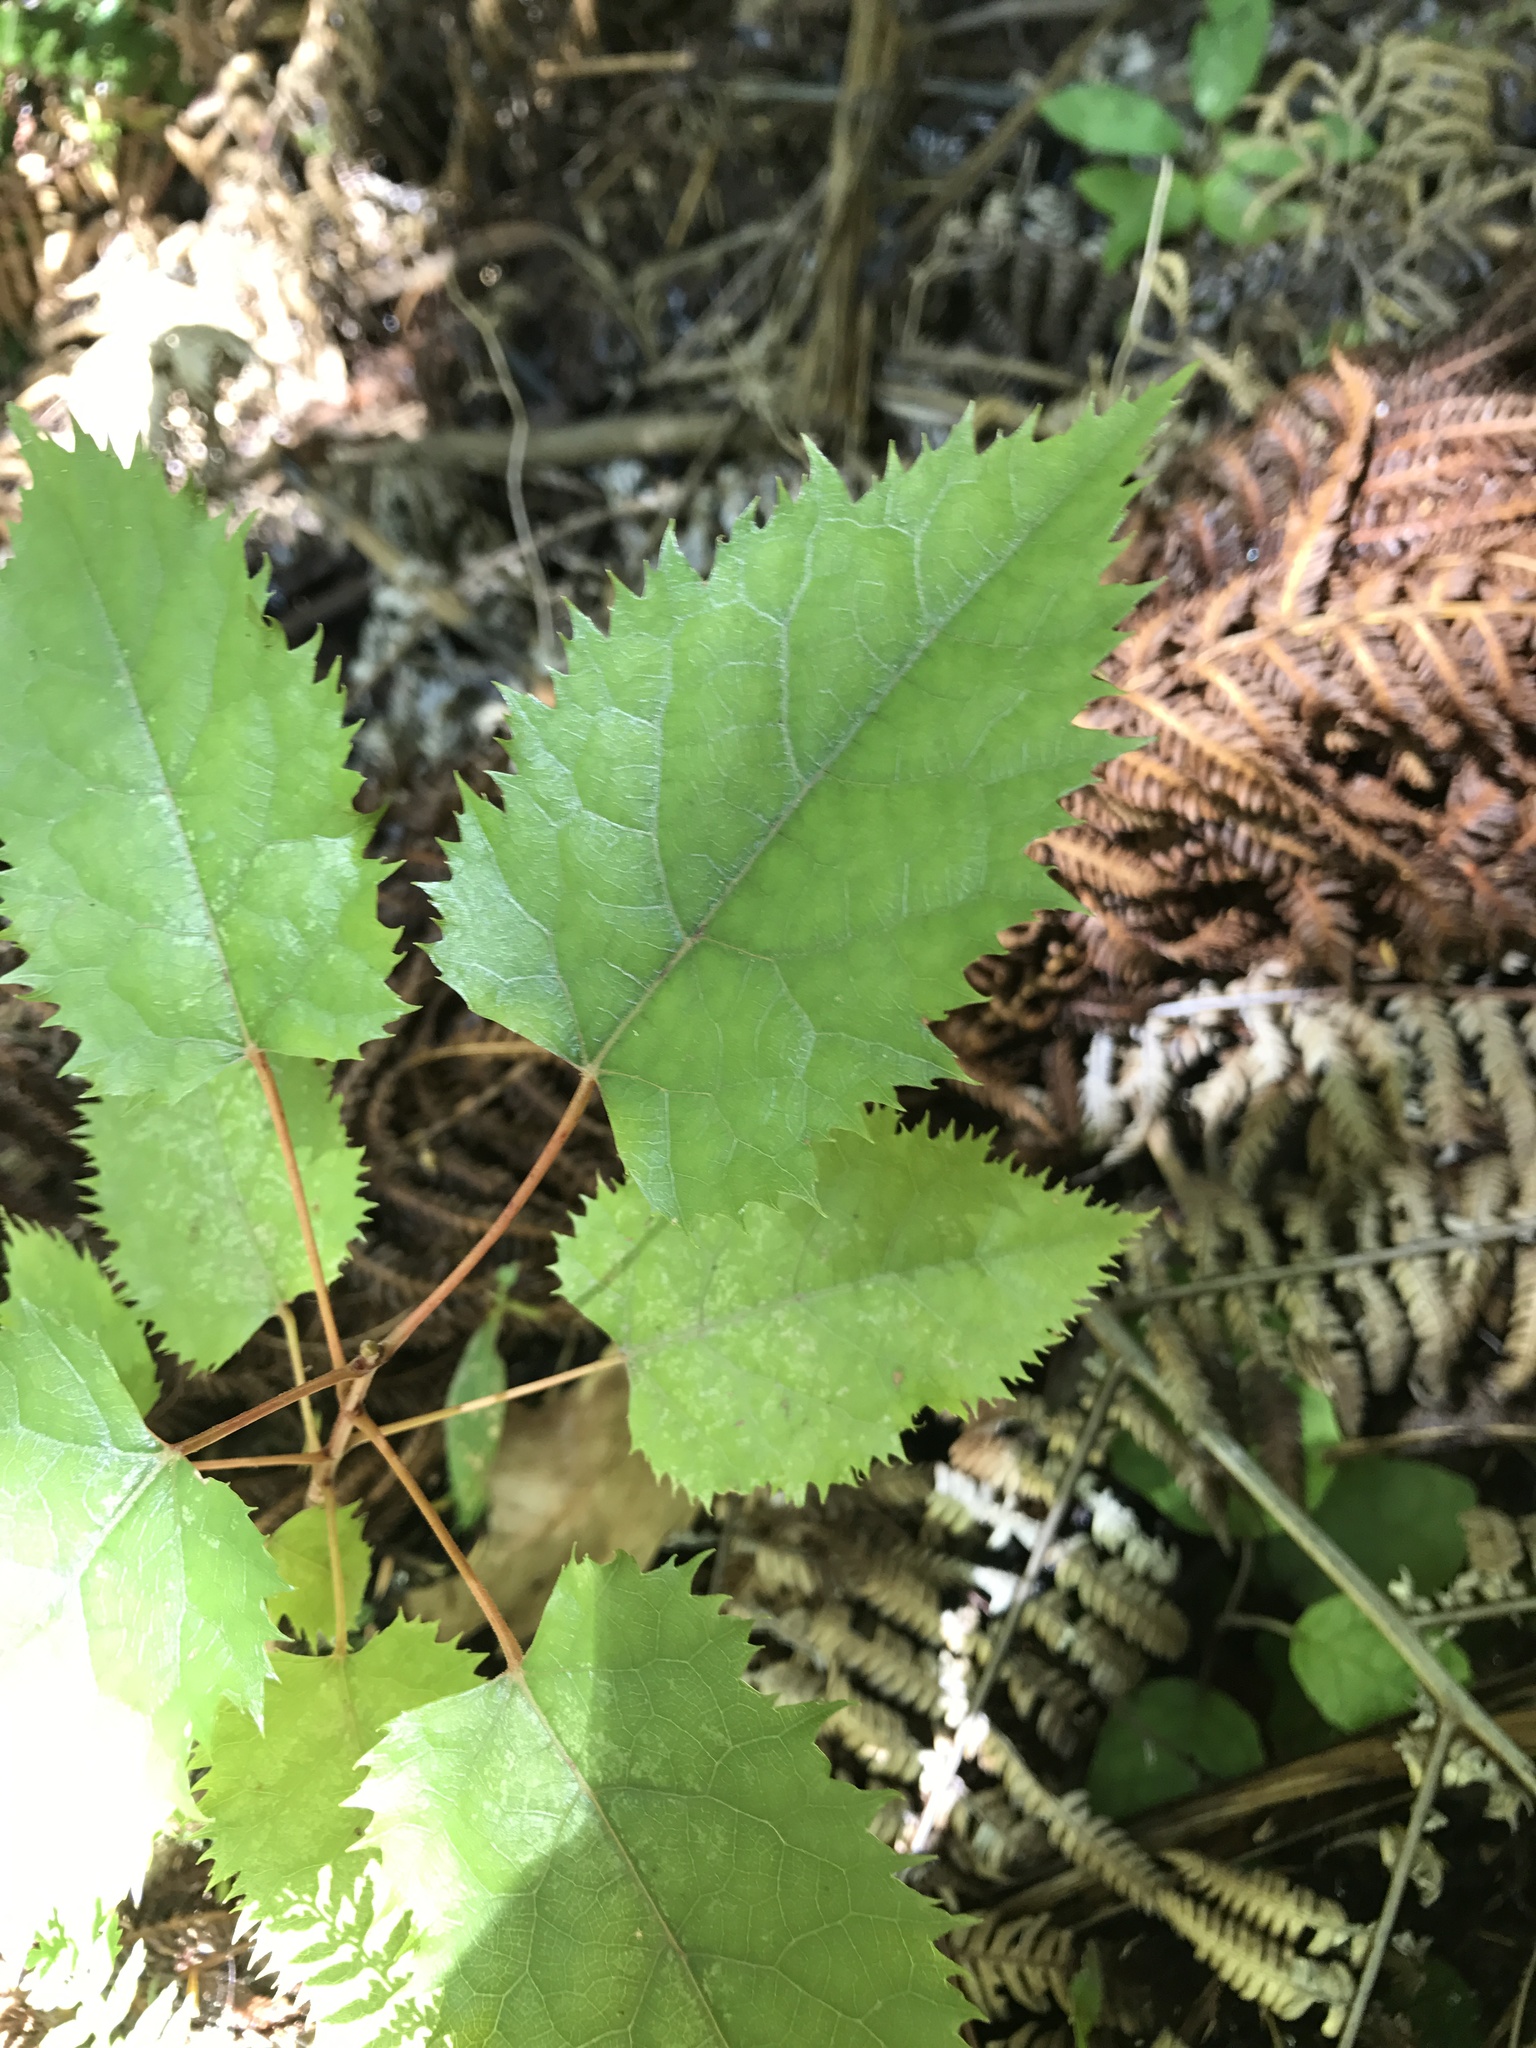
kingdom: Plantae
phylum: Tracheophyta
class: Magnoliopsida
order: Oxalidales
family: Elaeocarpaceae
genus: Aristotelia
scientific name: Aristotelia serrata
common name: New zealand wineberry
